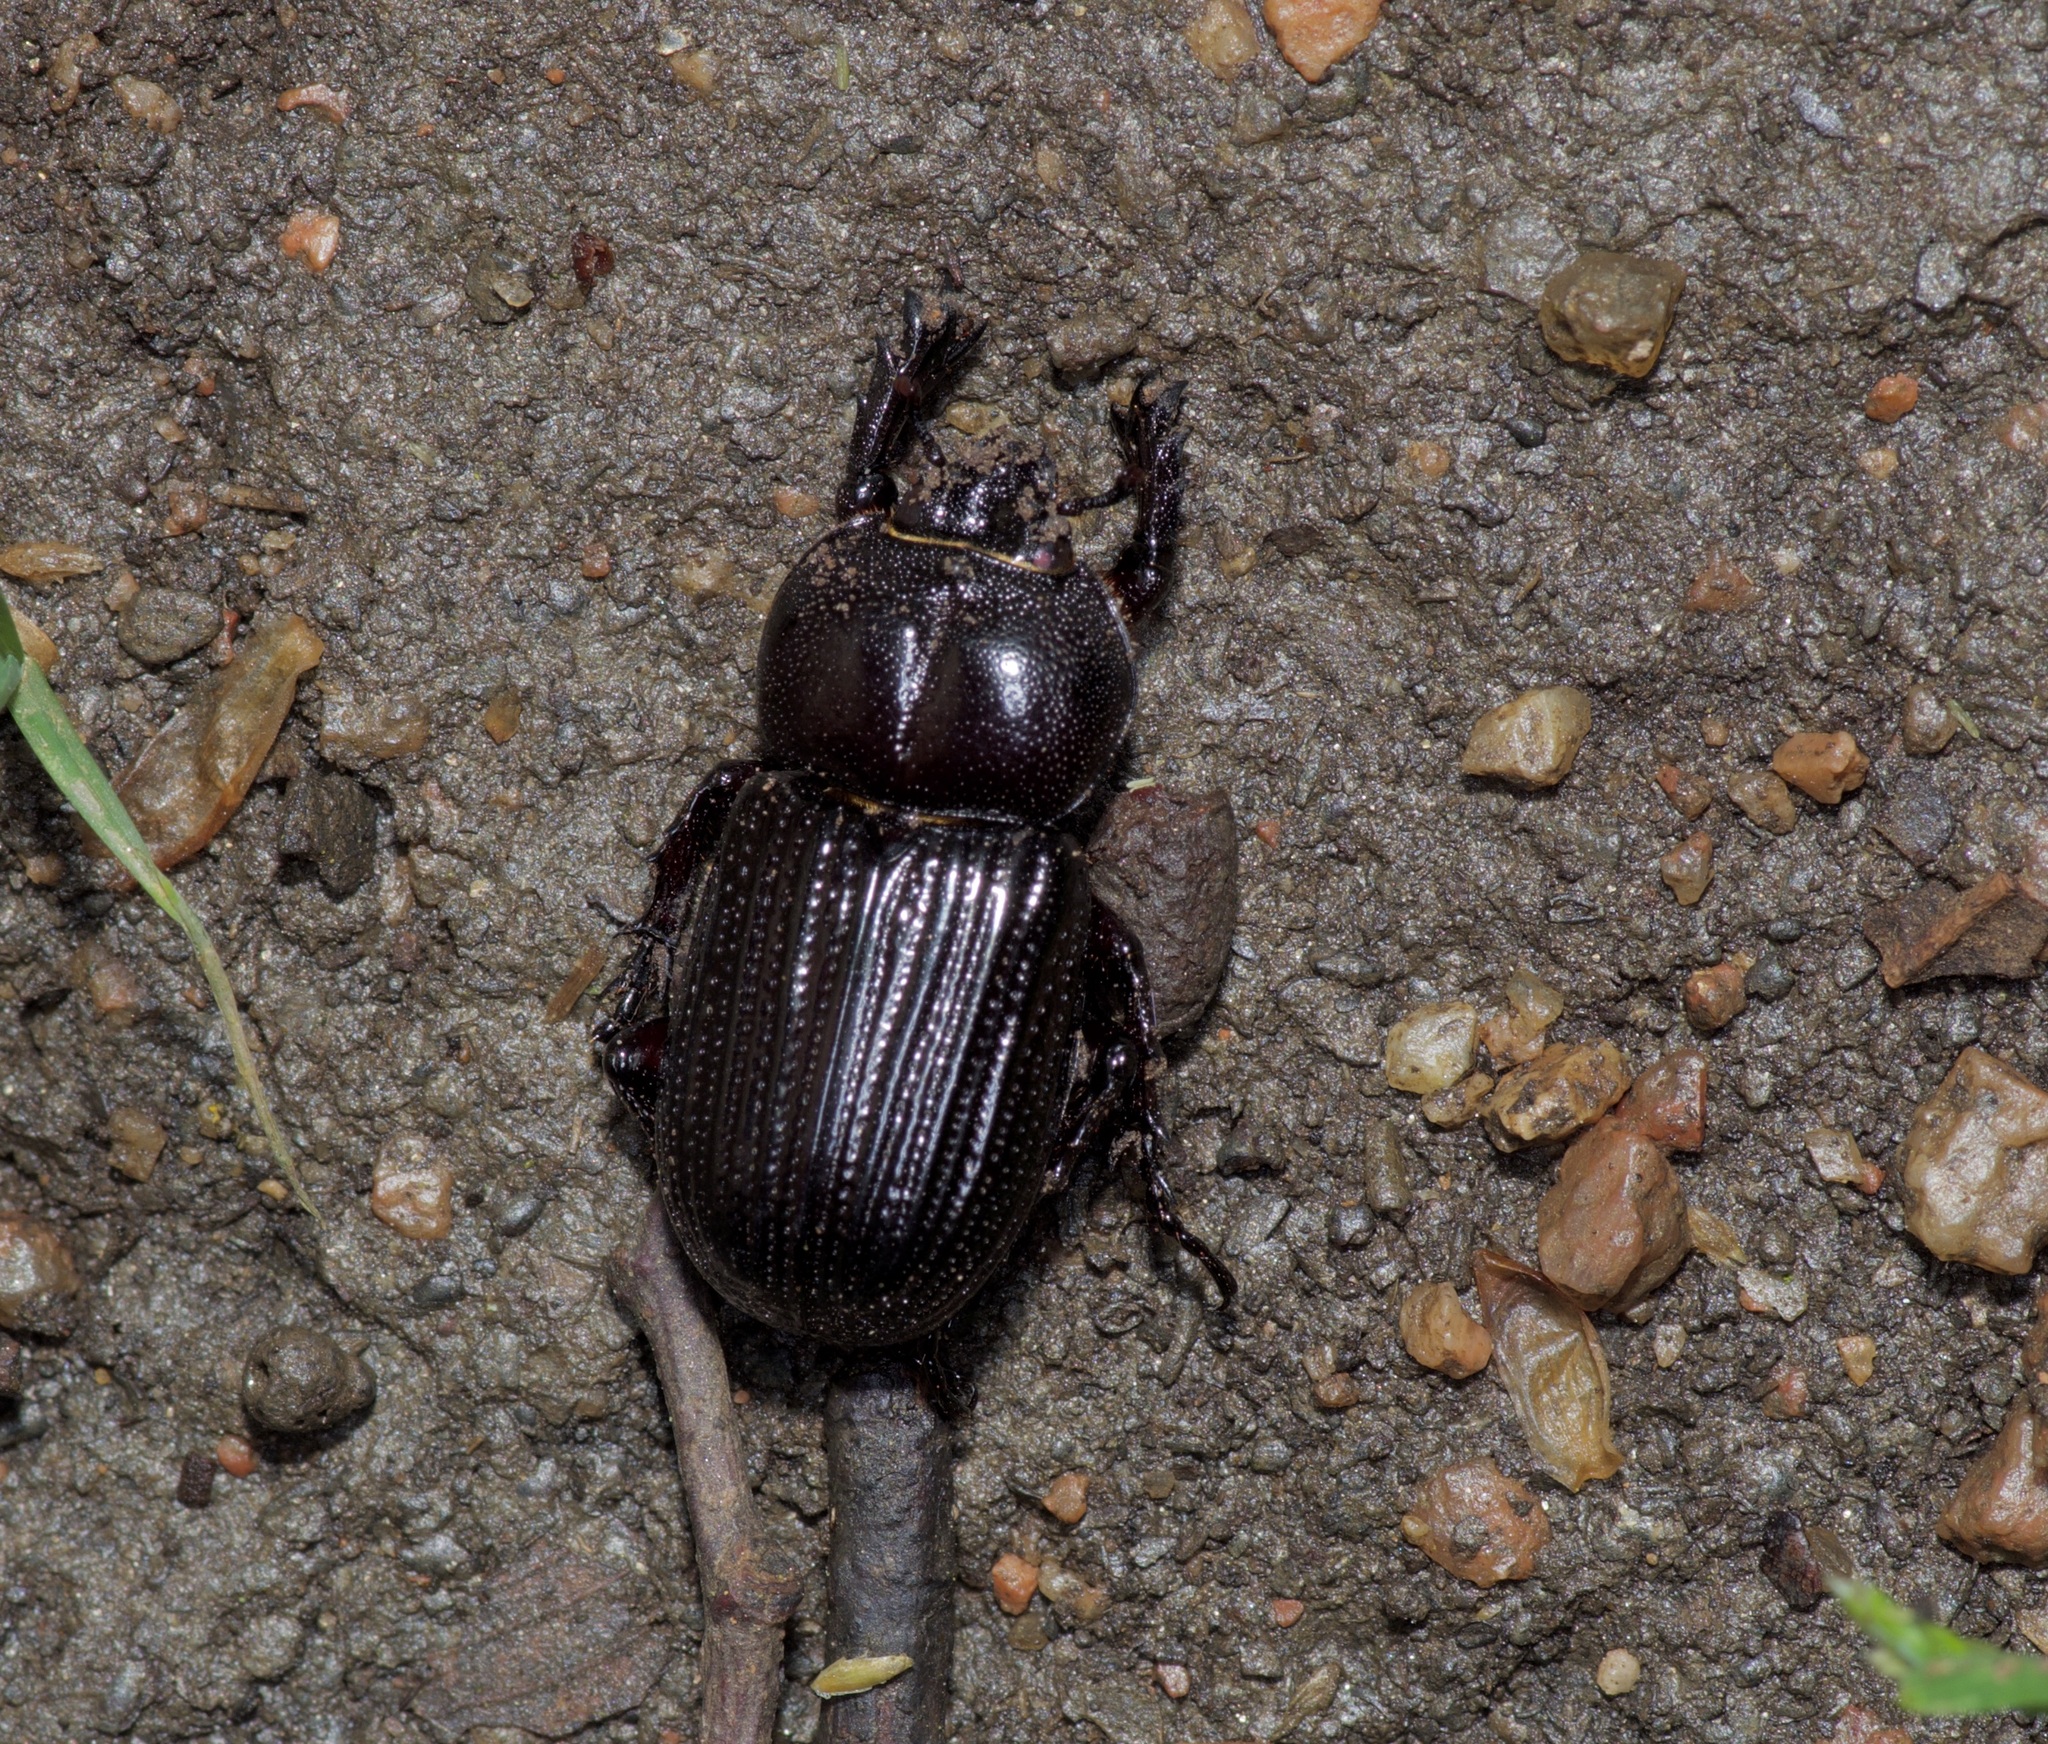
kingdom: Animalia
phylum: Arthropoda
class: Insecta
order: Coleoptera
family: Scarabaeidae
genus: Phileurus
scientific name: Phileurus valgus
